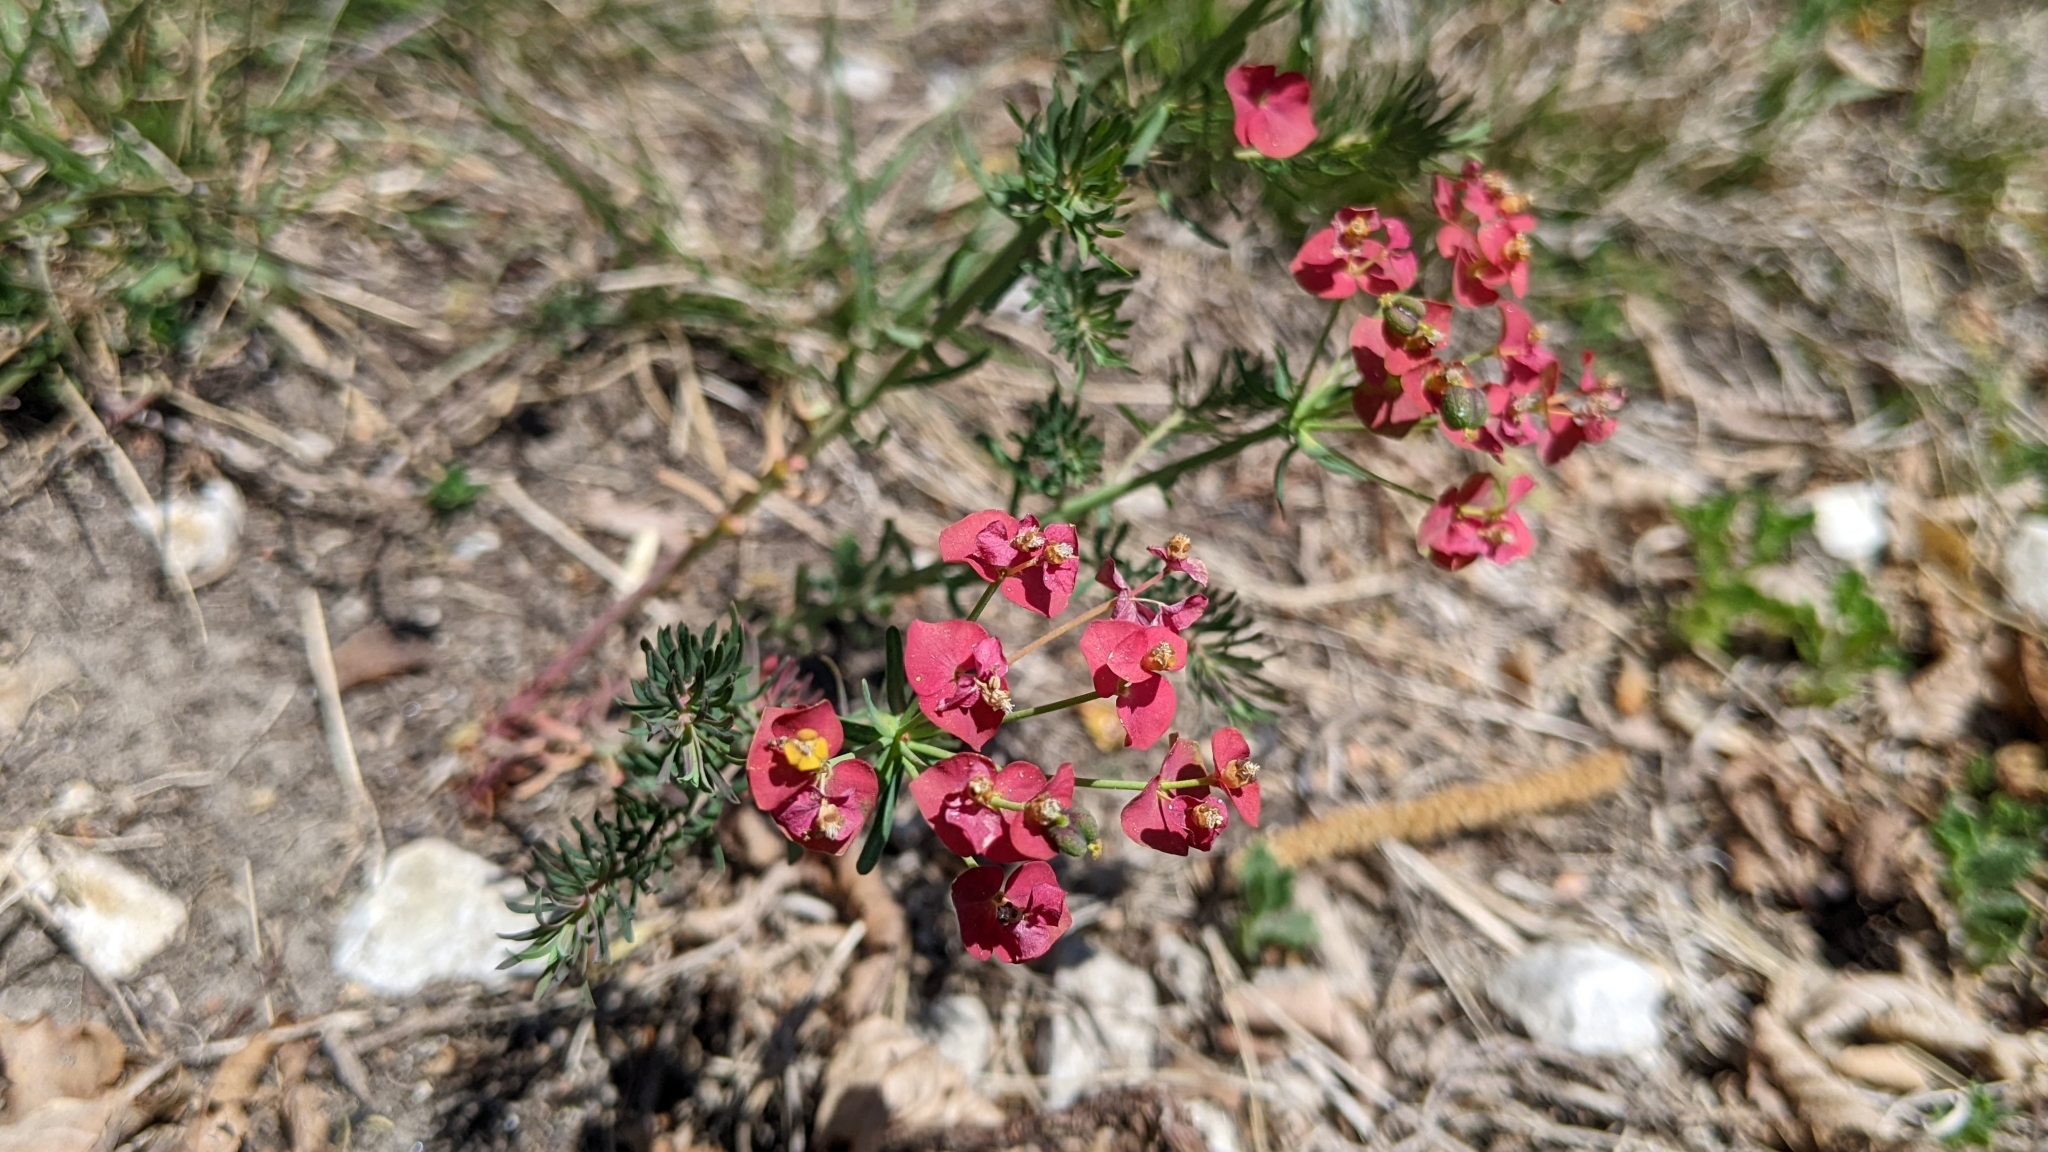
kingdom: Plantae
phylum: Tracheophyta
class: Magnoliopsida
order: Malpighiales
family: Euphorbiaceae
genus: Euphorbia
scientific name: Euphorbia cyparissias
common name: Cypress spurge
